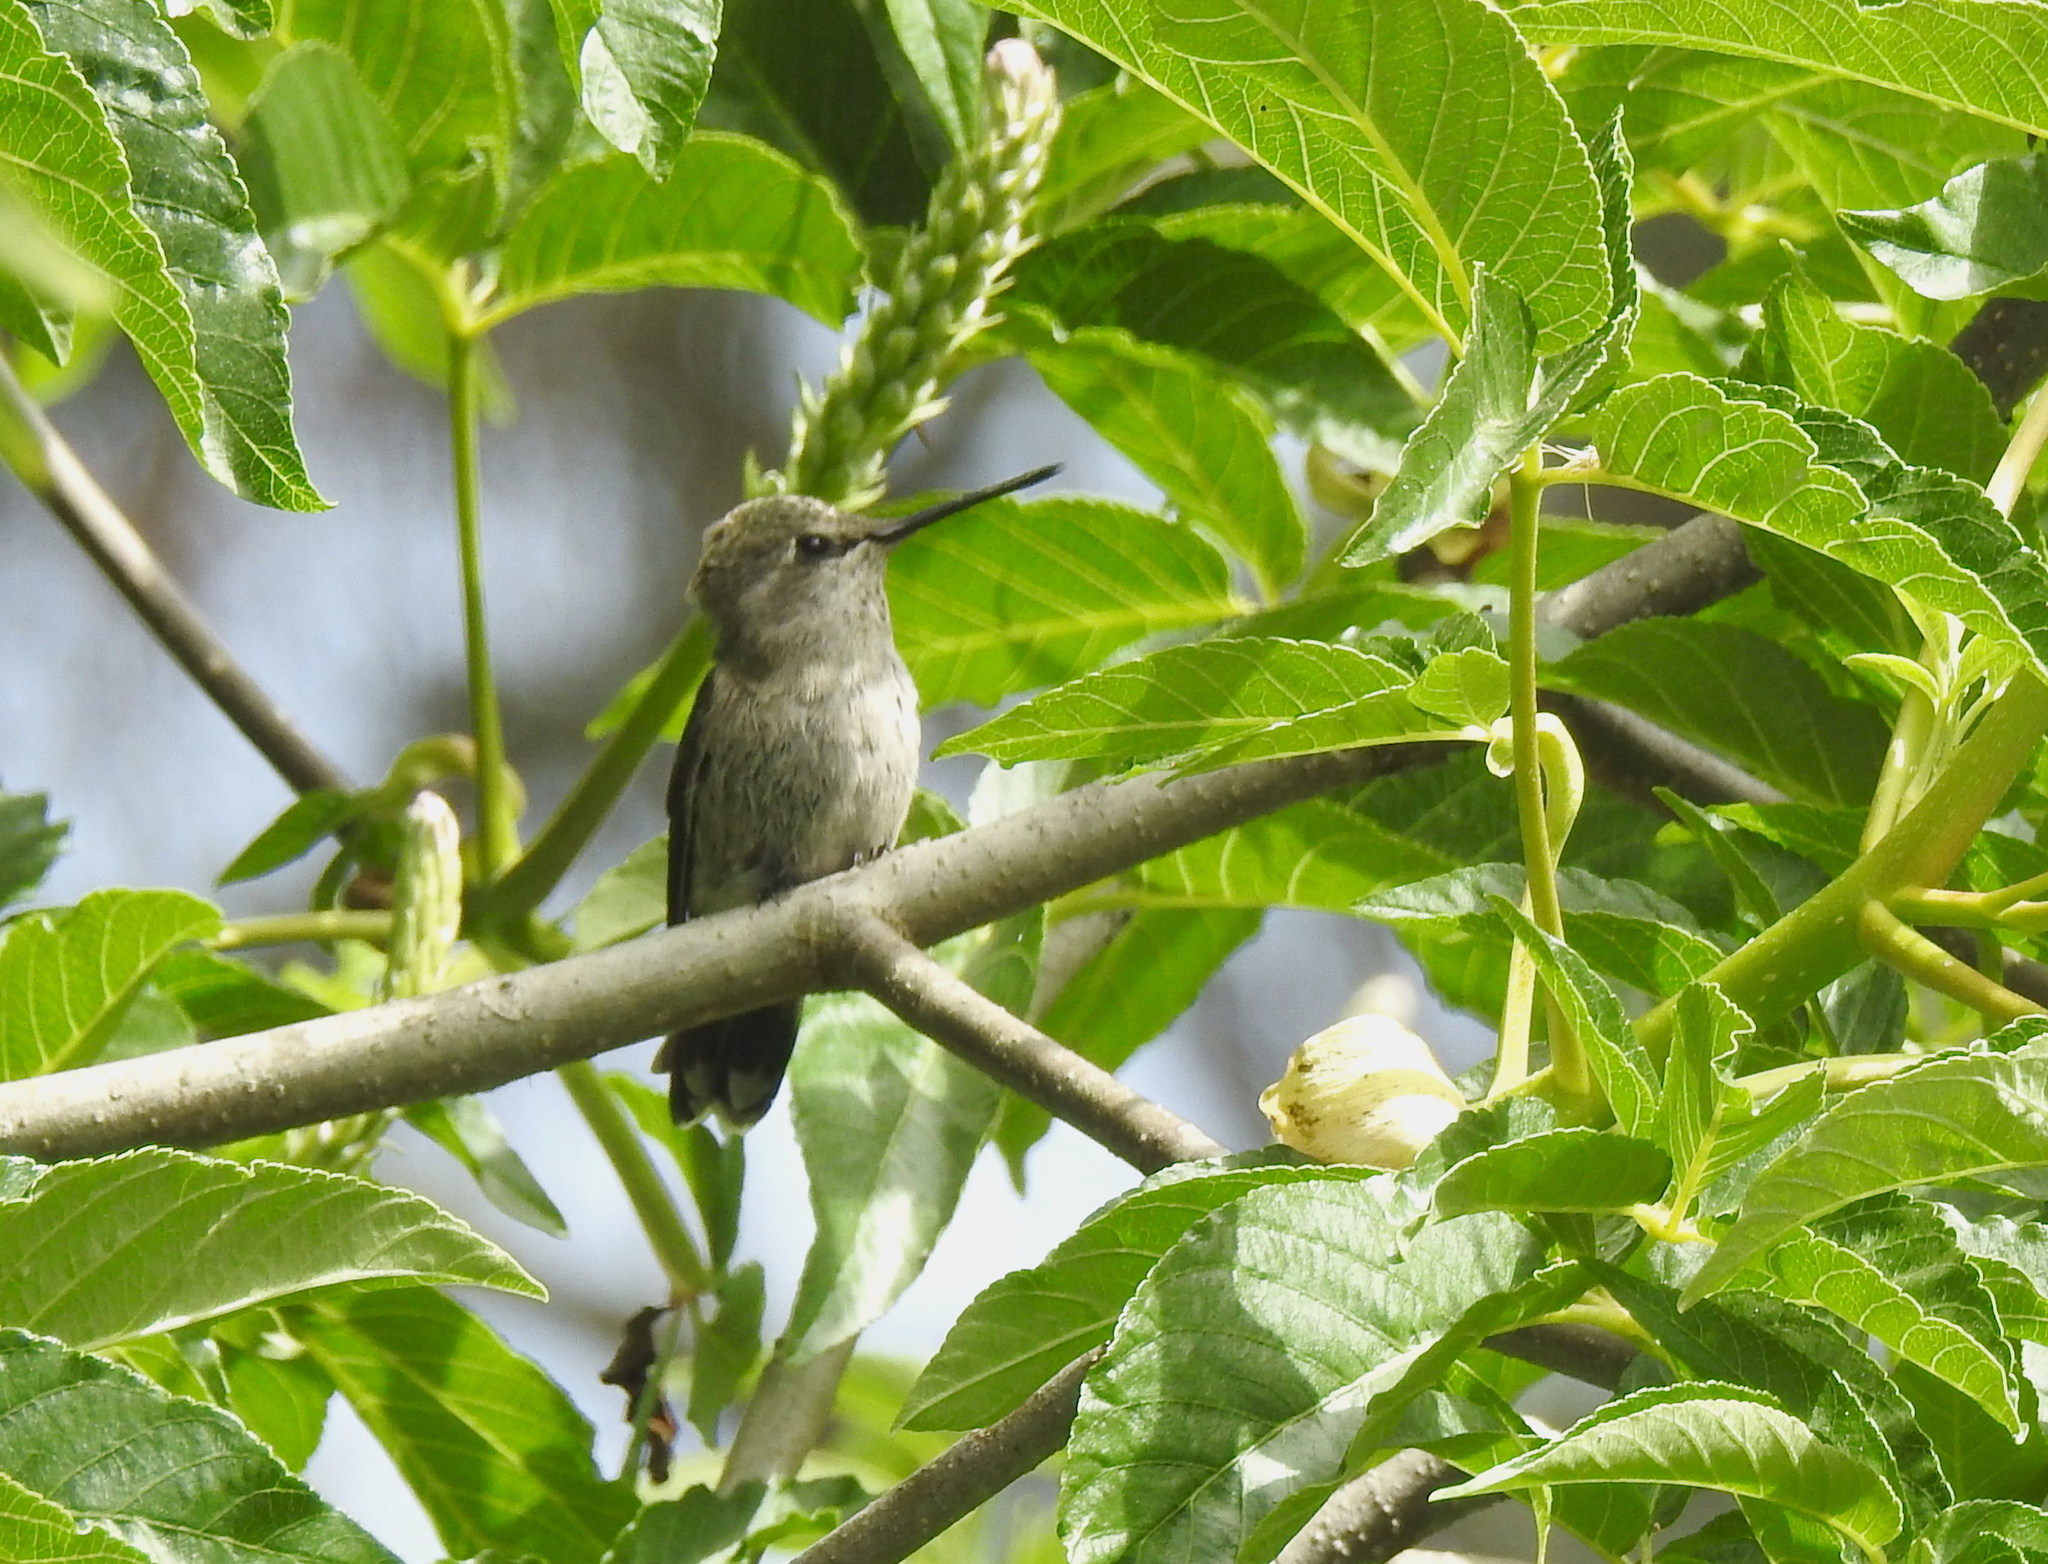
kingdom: Animalia
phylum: Chordata
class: Aves
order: Apodiformes
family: Trochilidae
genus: Calypte
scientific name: Calypte anna
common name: Anna's hummingbird
